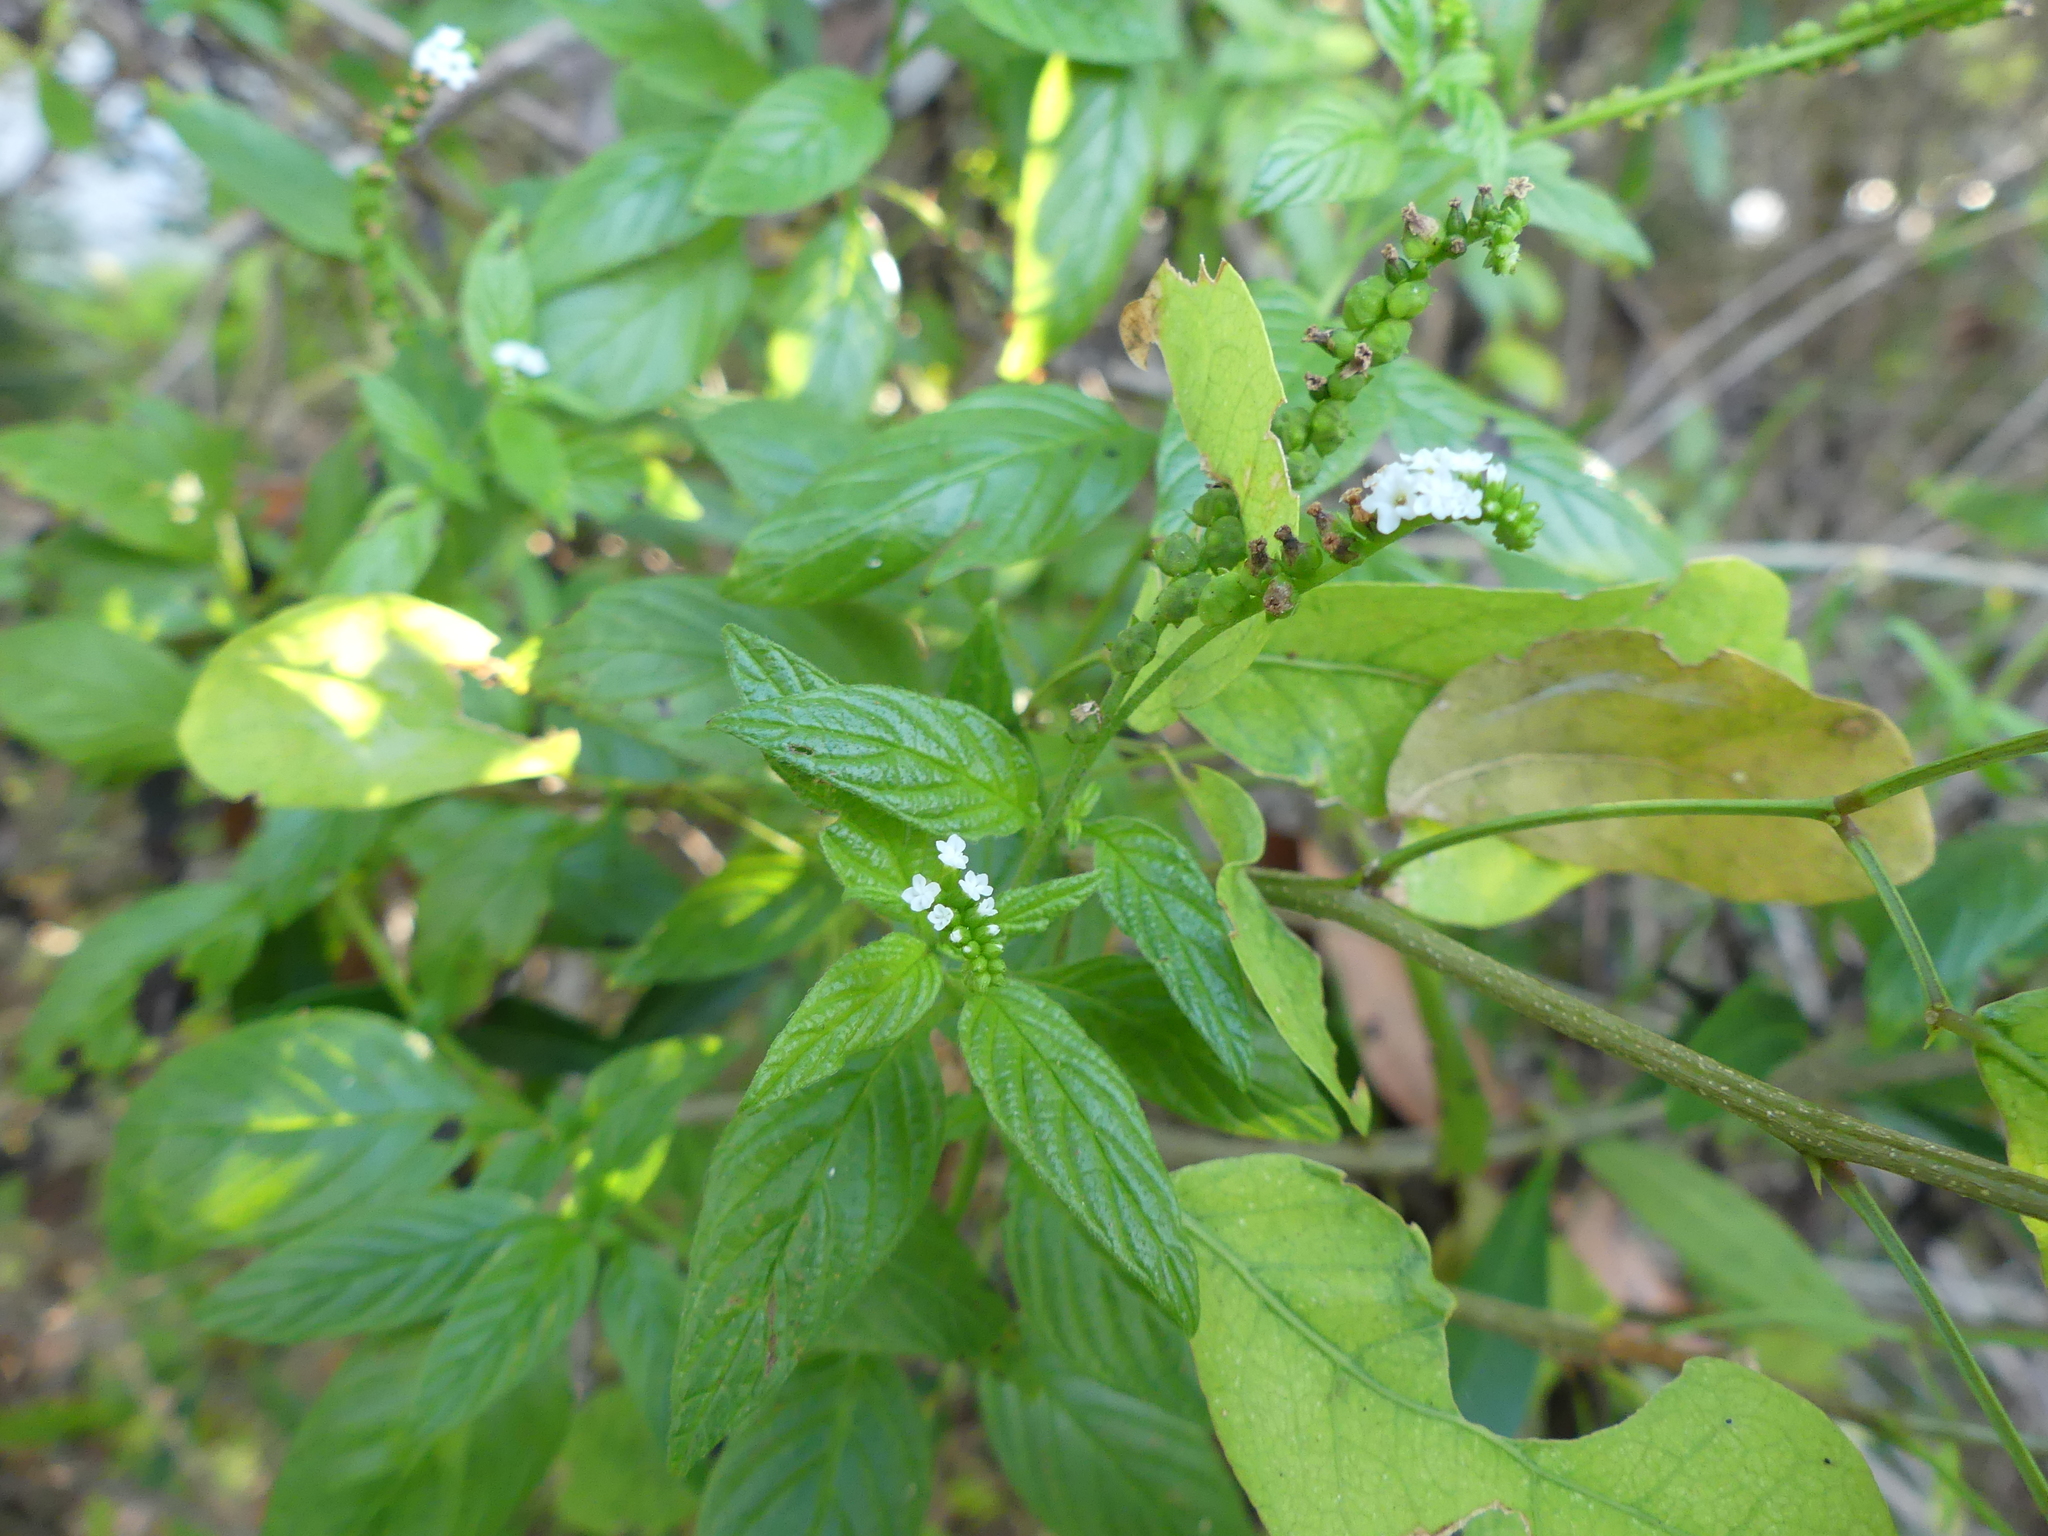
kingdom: Plantae
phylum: Tracheophyta
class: Magnoliopsida
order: Boraginales
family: Heliotropiaceae
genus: Heliotropium
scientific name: Heliotropium angiospermum
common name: Eye bright
